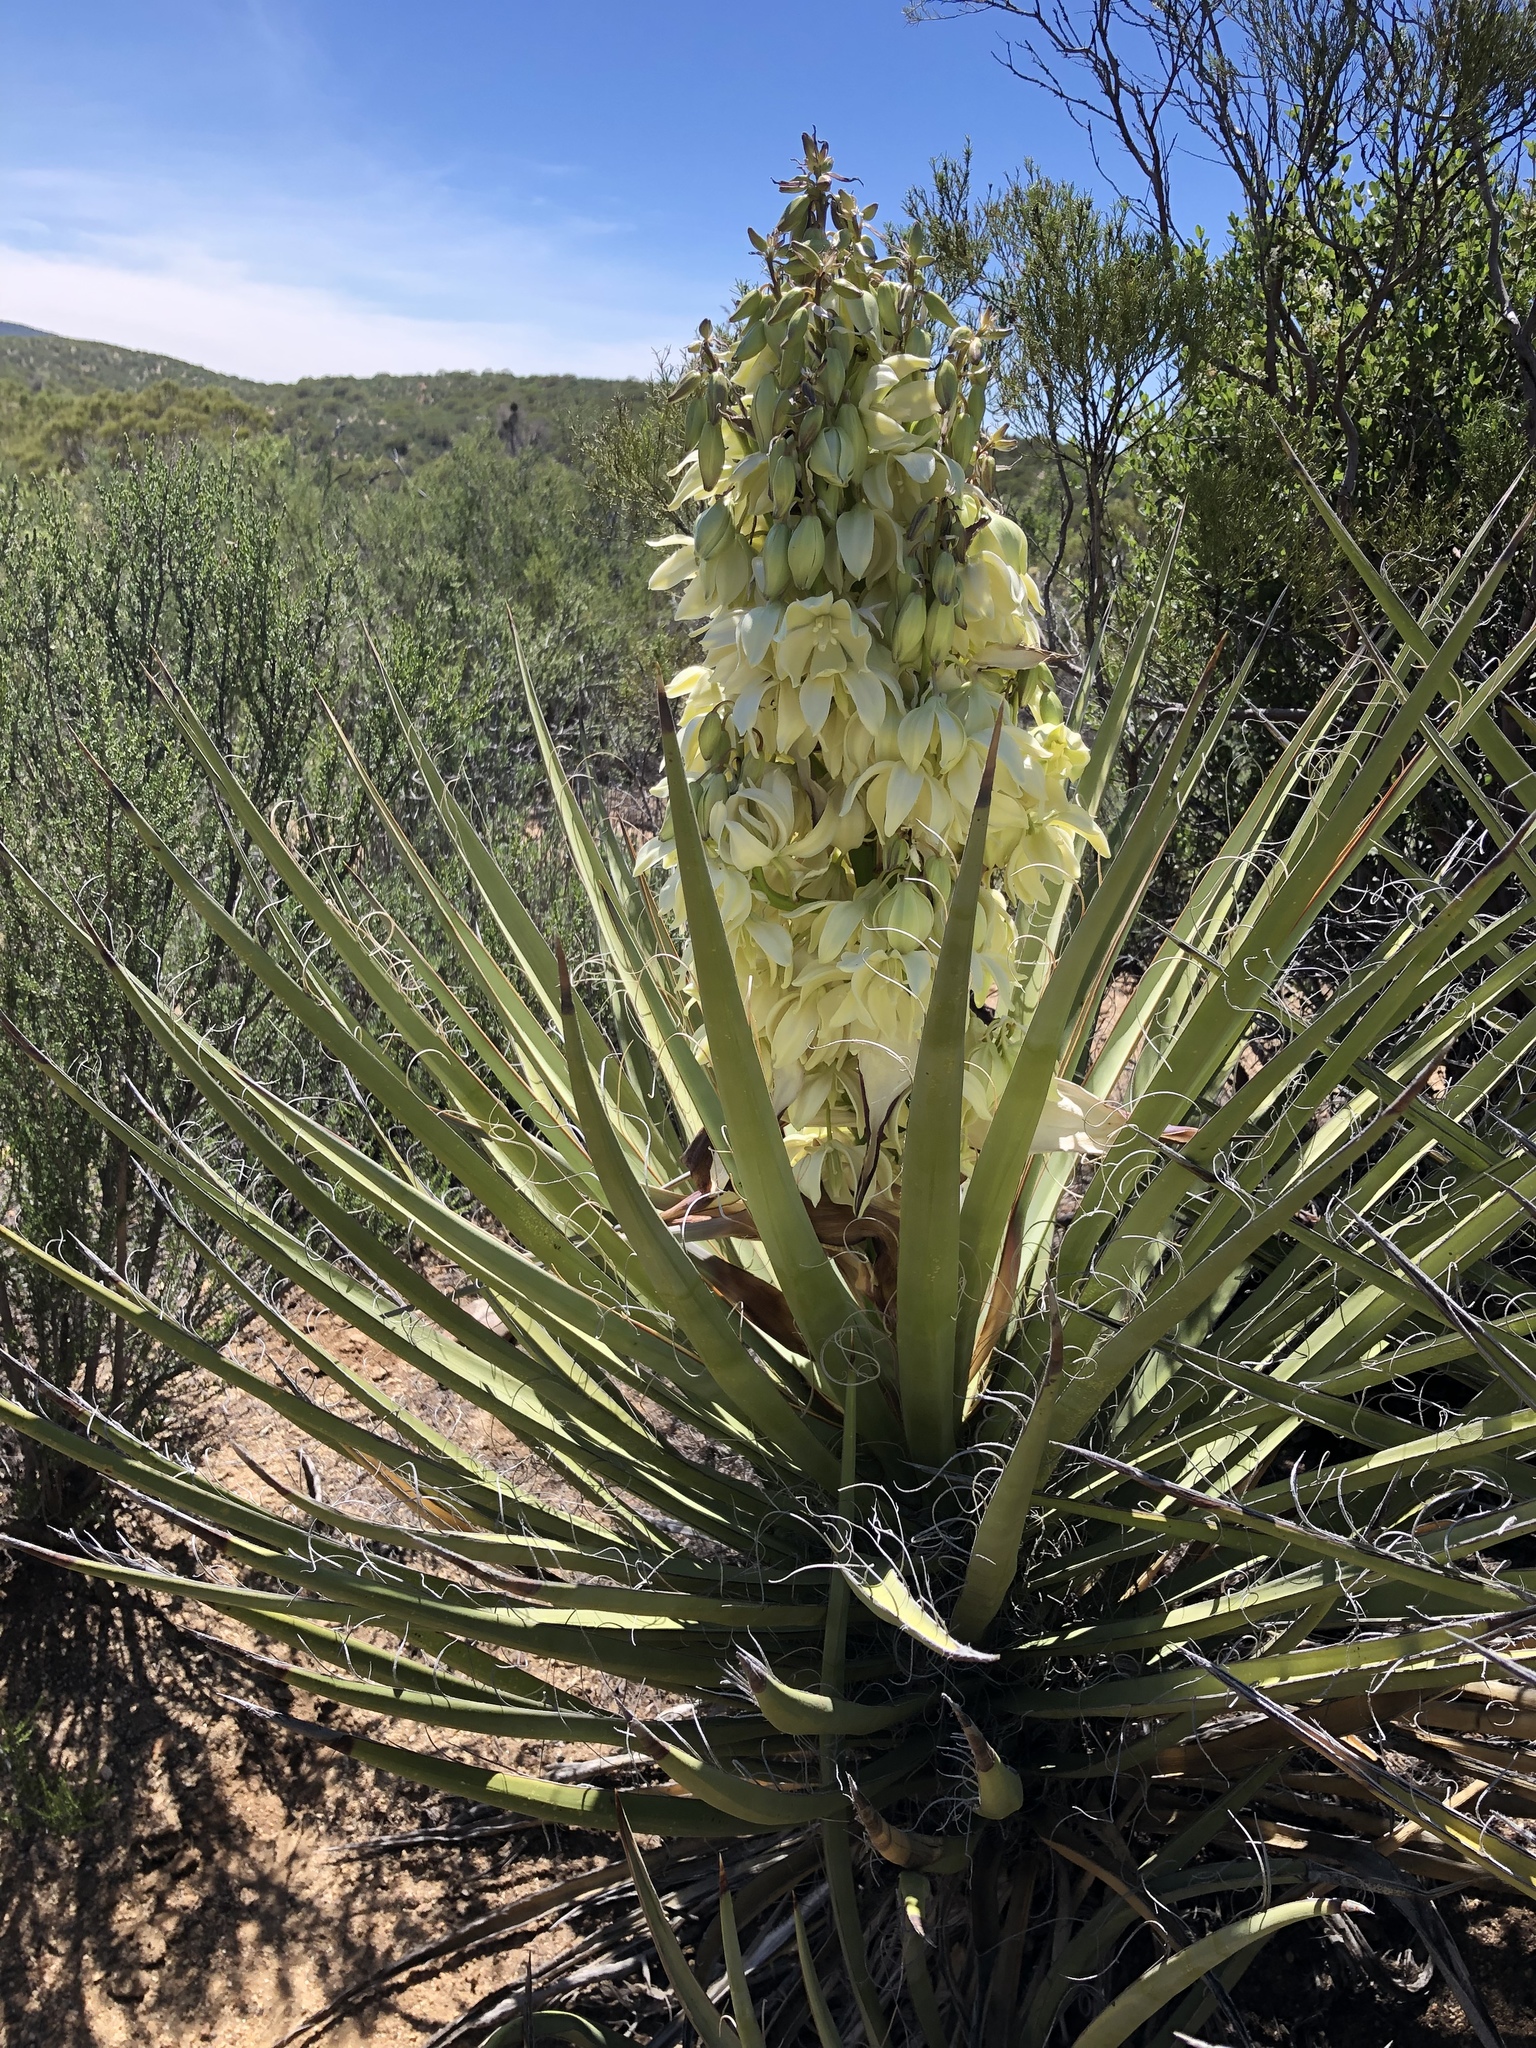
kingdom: Plantae
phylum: Tracheophyta
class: Liliopsida
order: Asparagales
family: Asparagaceae
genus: Yucca
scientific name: Yucca schidigera
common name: Mojave yucca
